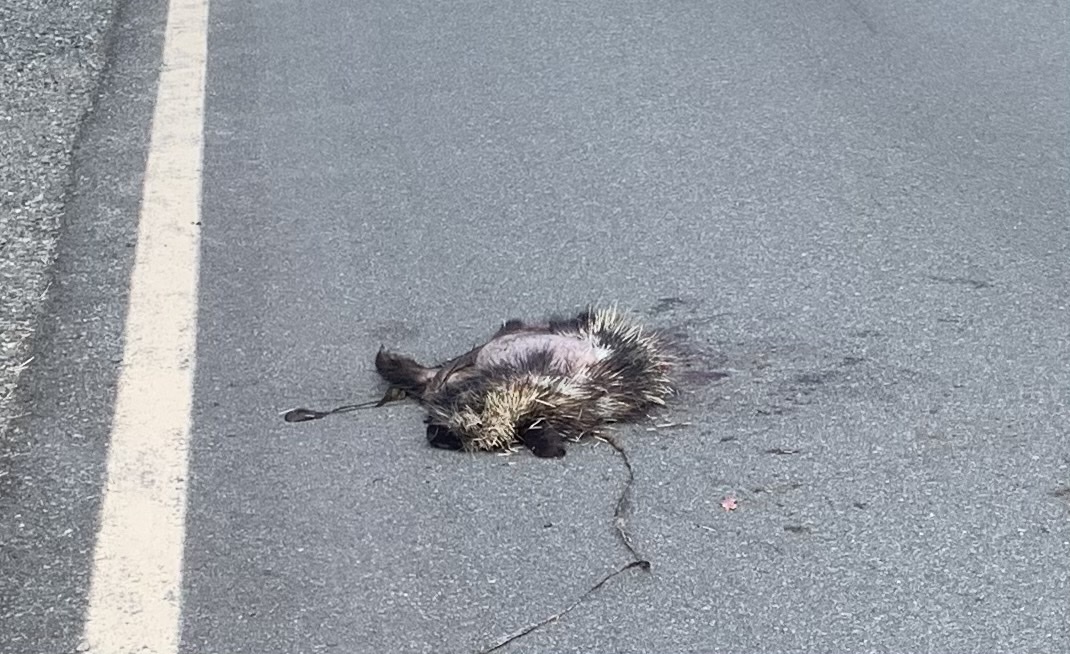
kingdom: Animalia
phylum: Chordata
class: Mammalia
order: Rodentia
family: Erethizontidae
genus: Erethizon
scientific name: Erethizon dorsatus
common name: North american porcupine
